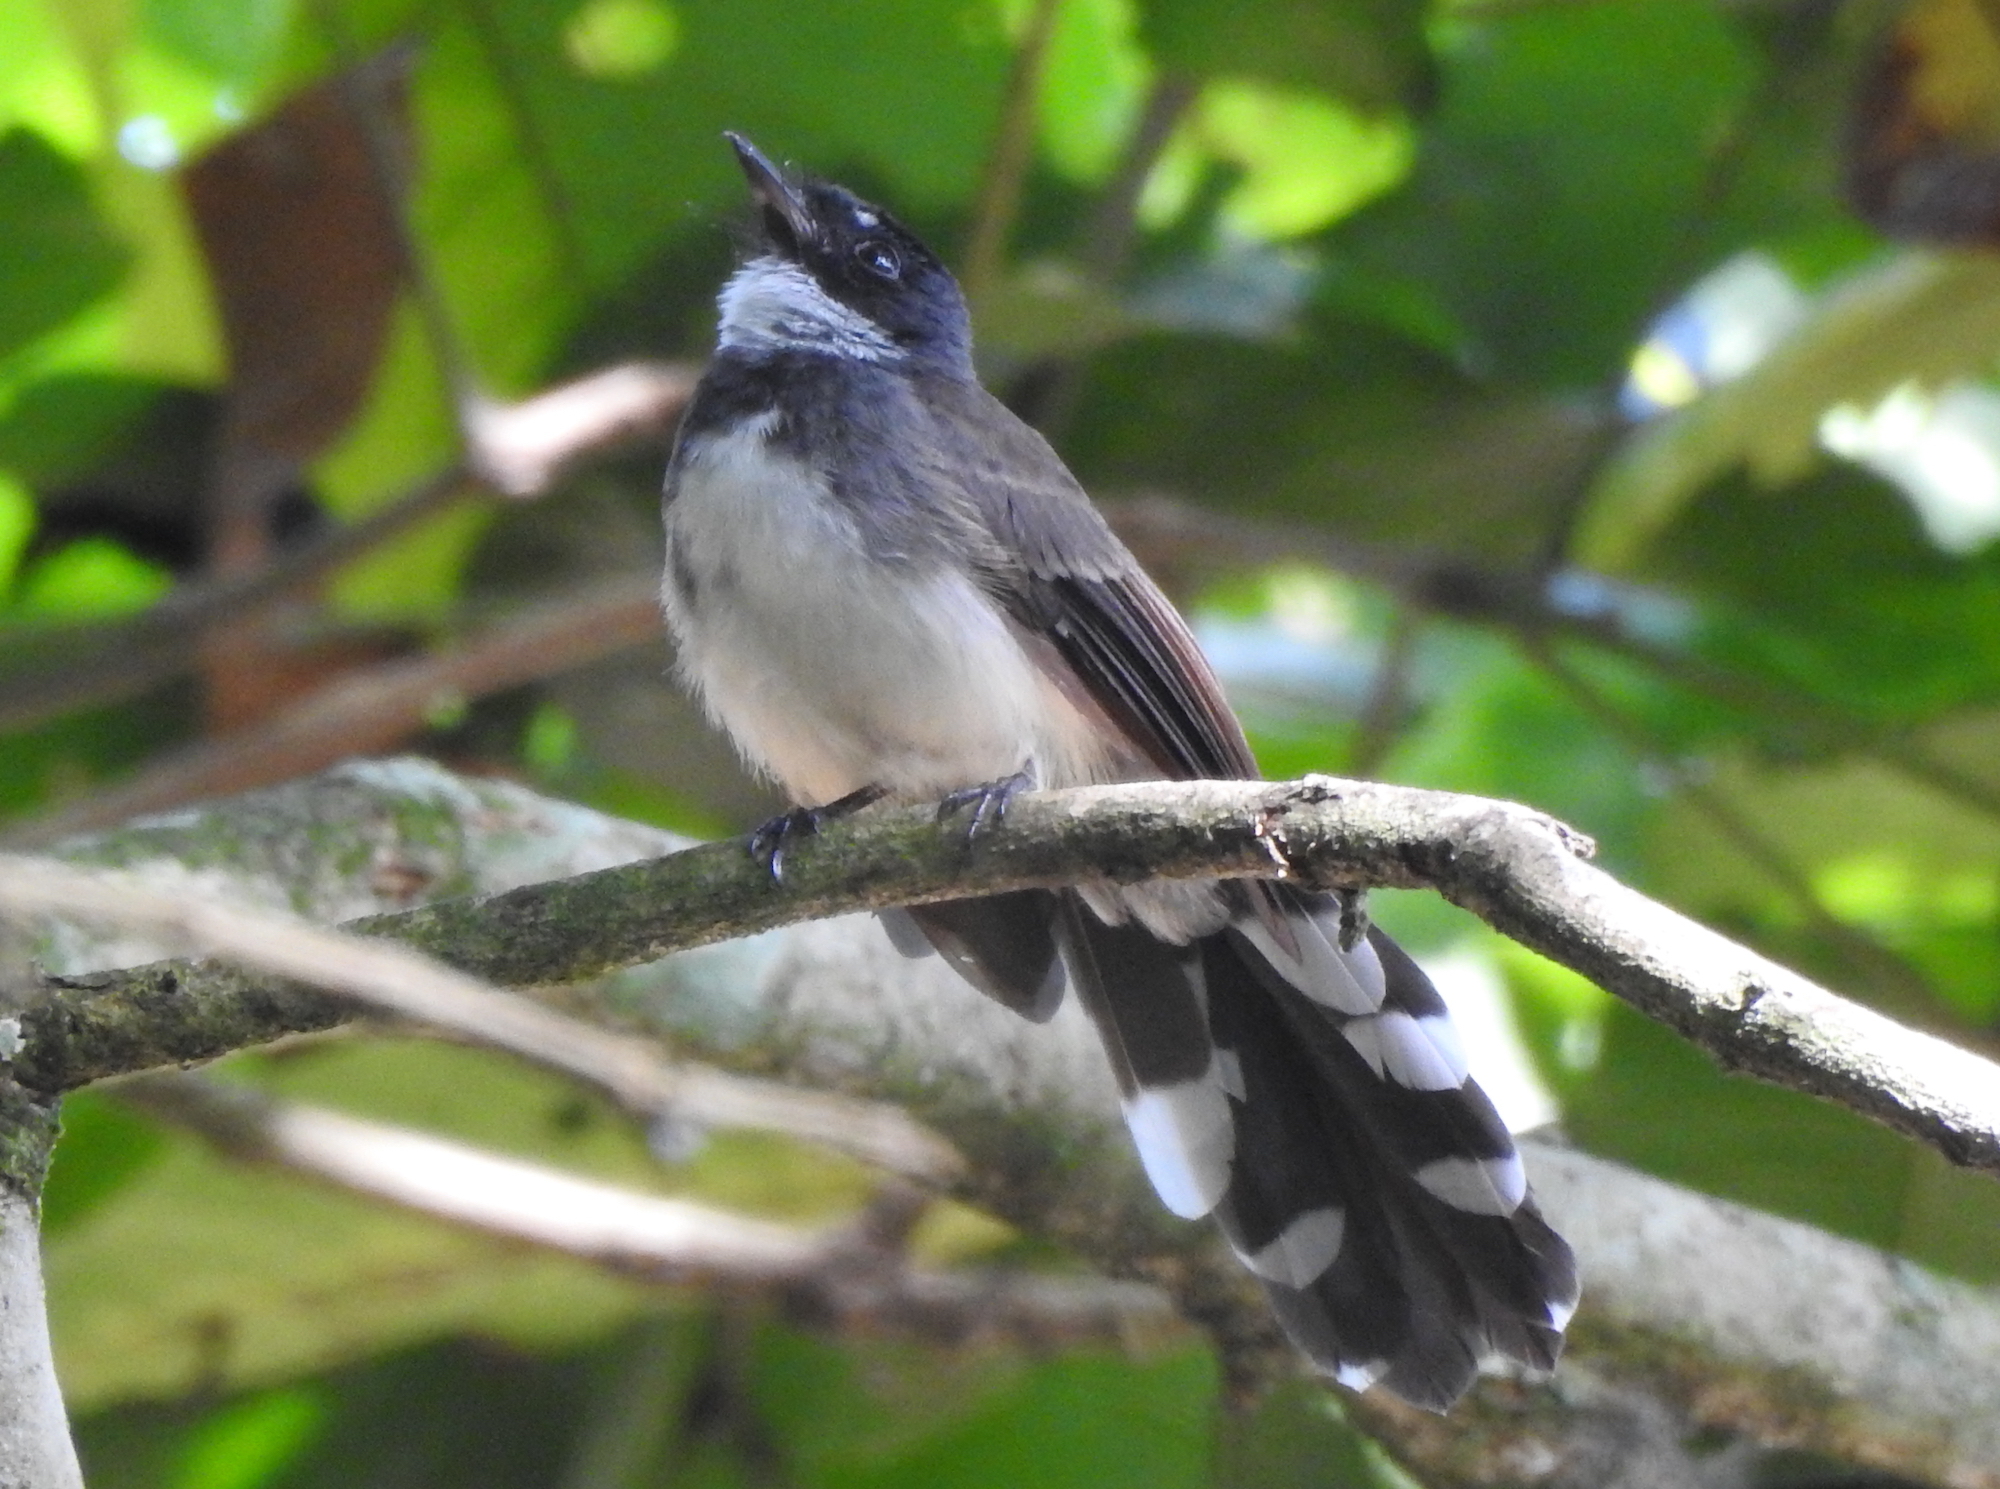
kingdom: Animalia
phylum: Chordata
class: Aves
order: Passeriformes
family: Rhipiduridae
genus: Rhipidura
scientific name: Rhipidura javanica
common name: Pied fantail
